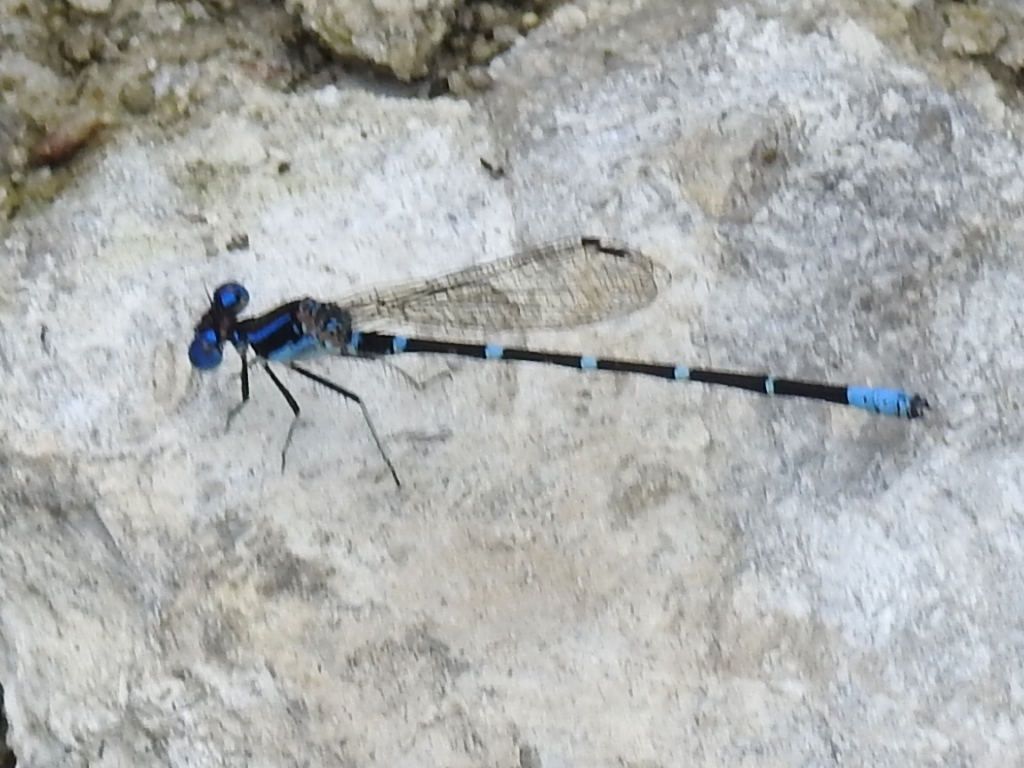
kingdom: Animalia
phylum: Arthropoda
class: Insecta
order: Odonata
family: Coenagrionidae
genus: Argia
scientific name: Argia sedula
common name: Blue-ringed dancer
